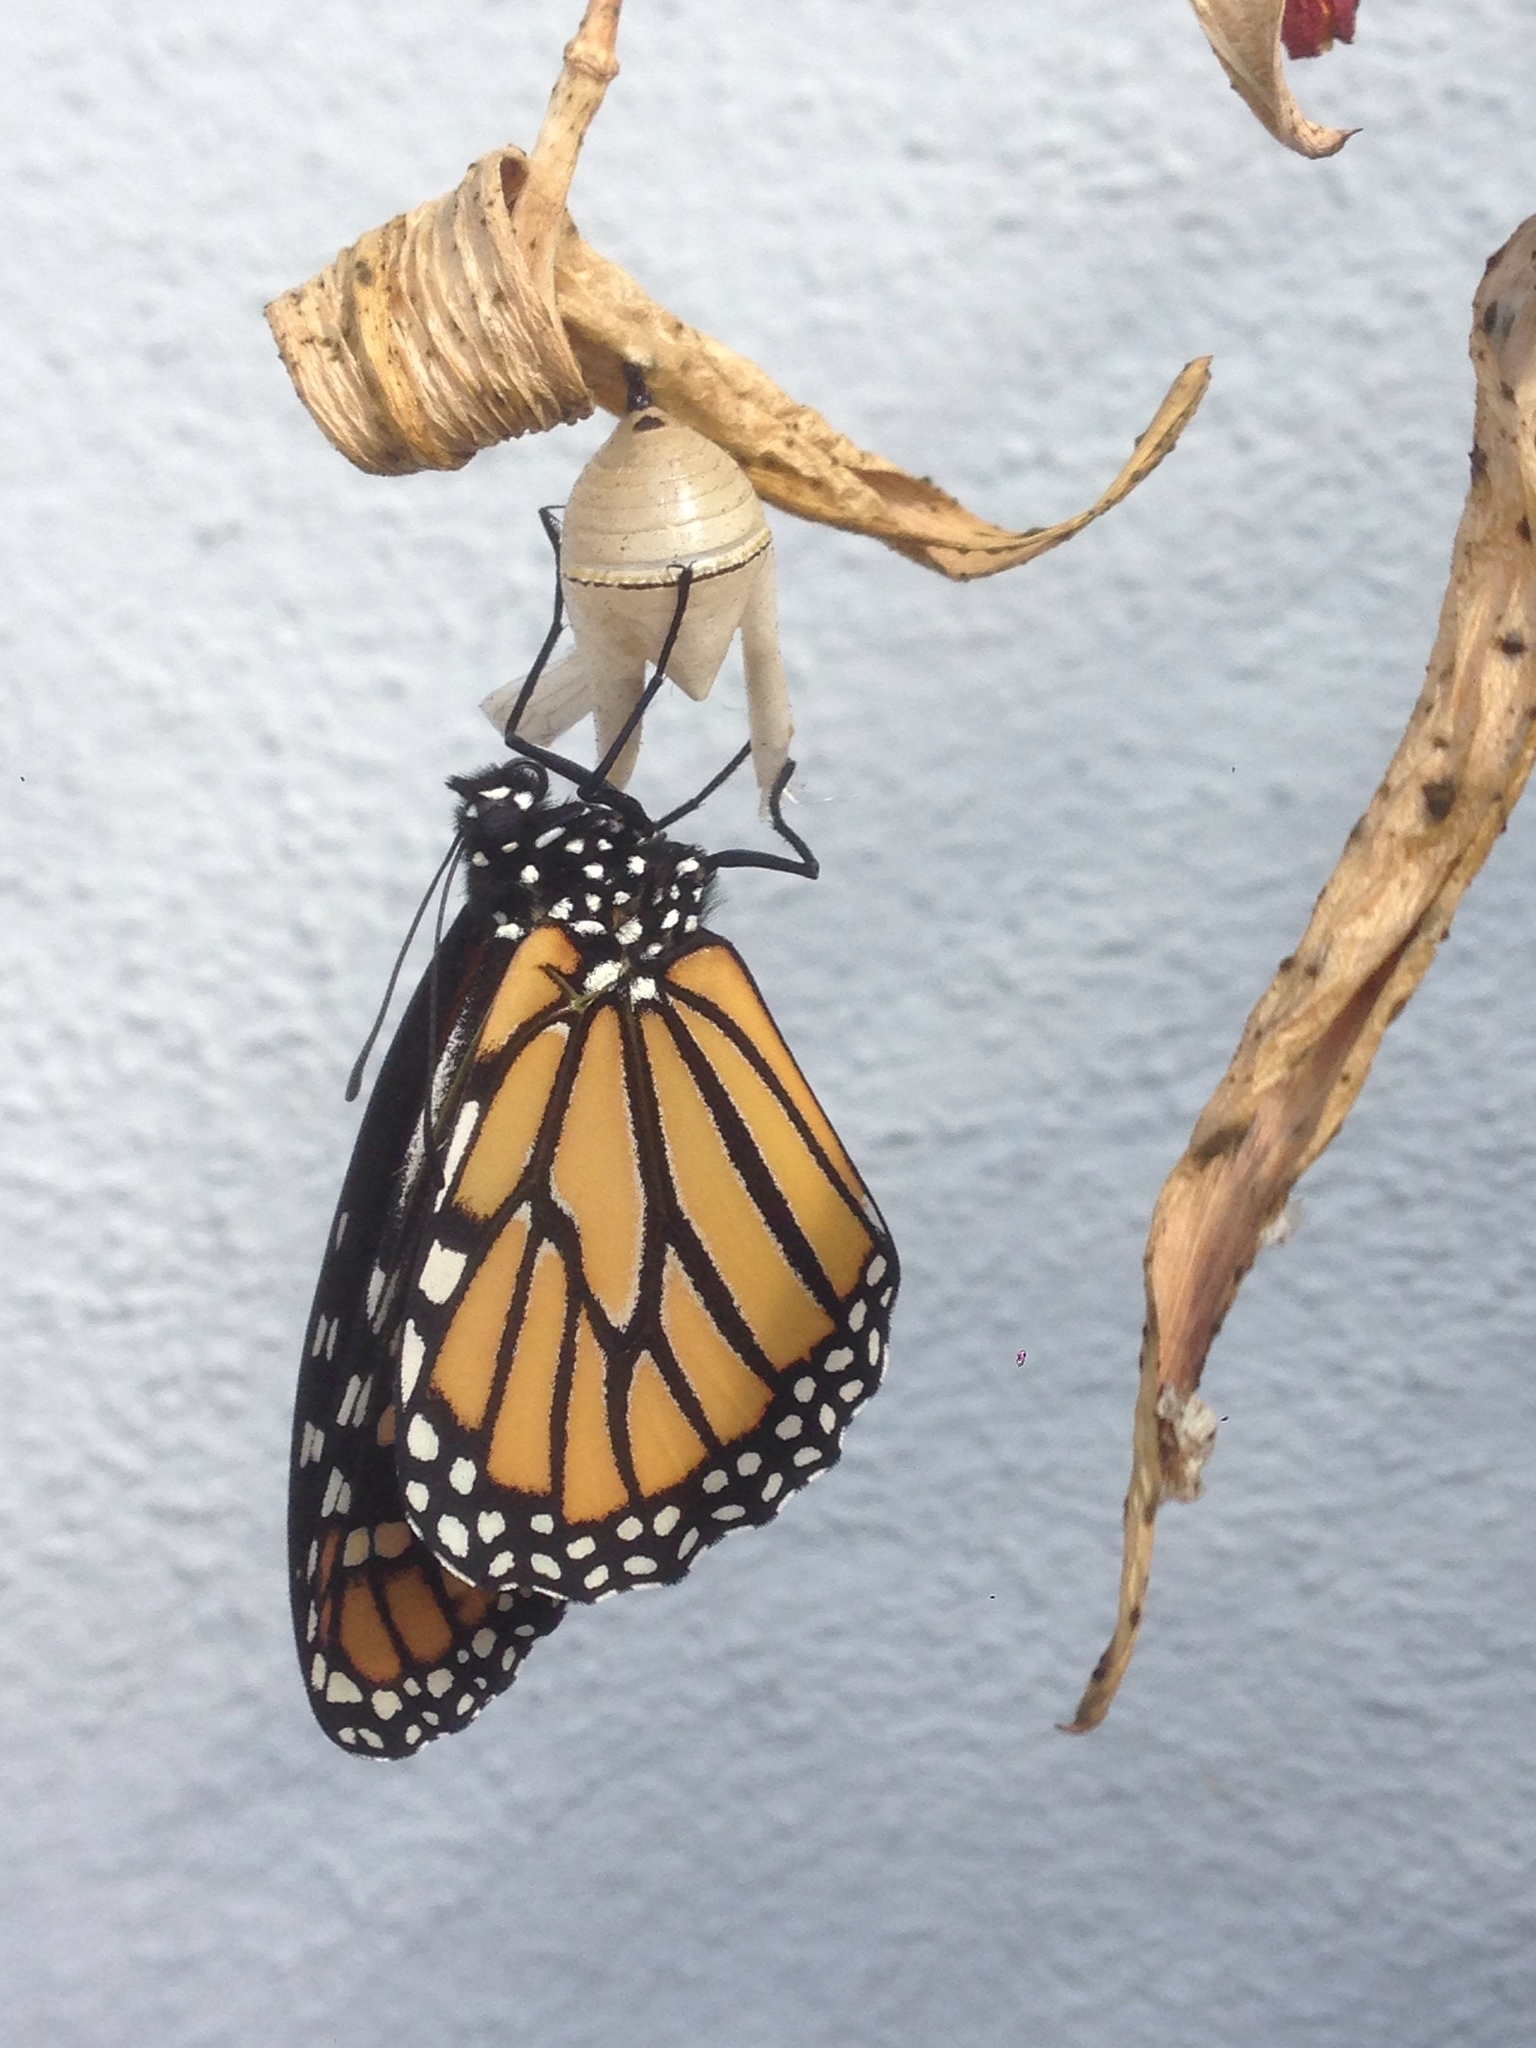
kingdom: Animalia
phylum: Arthropoda
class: Insecta
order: Lepidoptera
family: Nymphalidae
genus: Danaus
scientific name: Danaus plexippus
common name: Monarch
